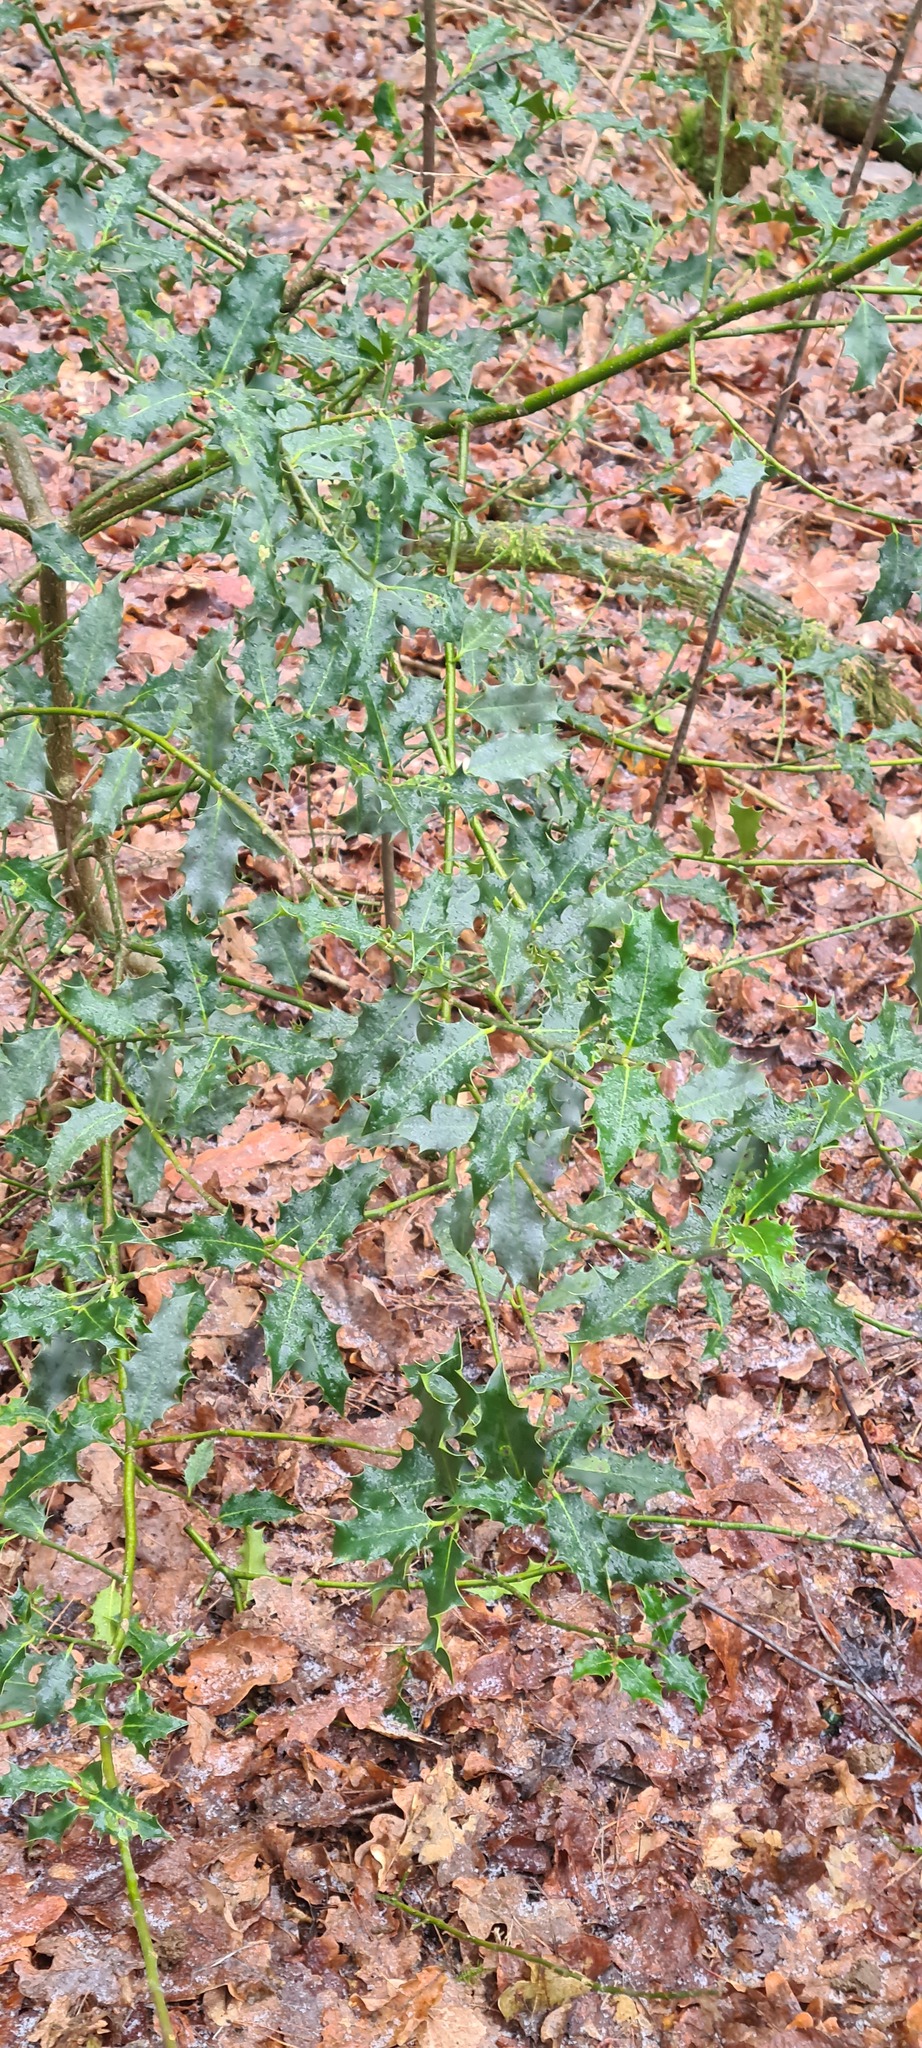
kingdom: Plantae
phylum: Tracheophyta
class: Magnoliopsida
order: Aquifoliales
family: Aquifoliaceae
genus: Ilex
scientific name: Ilex aquifolium
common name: English holly
